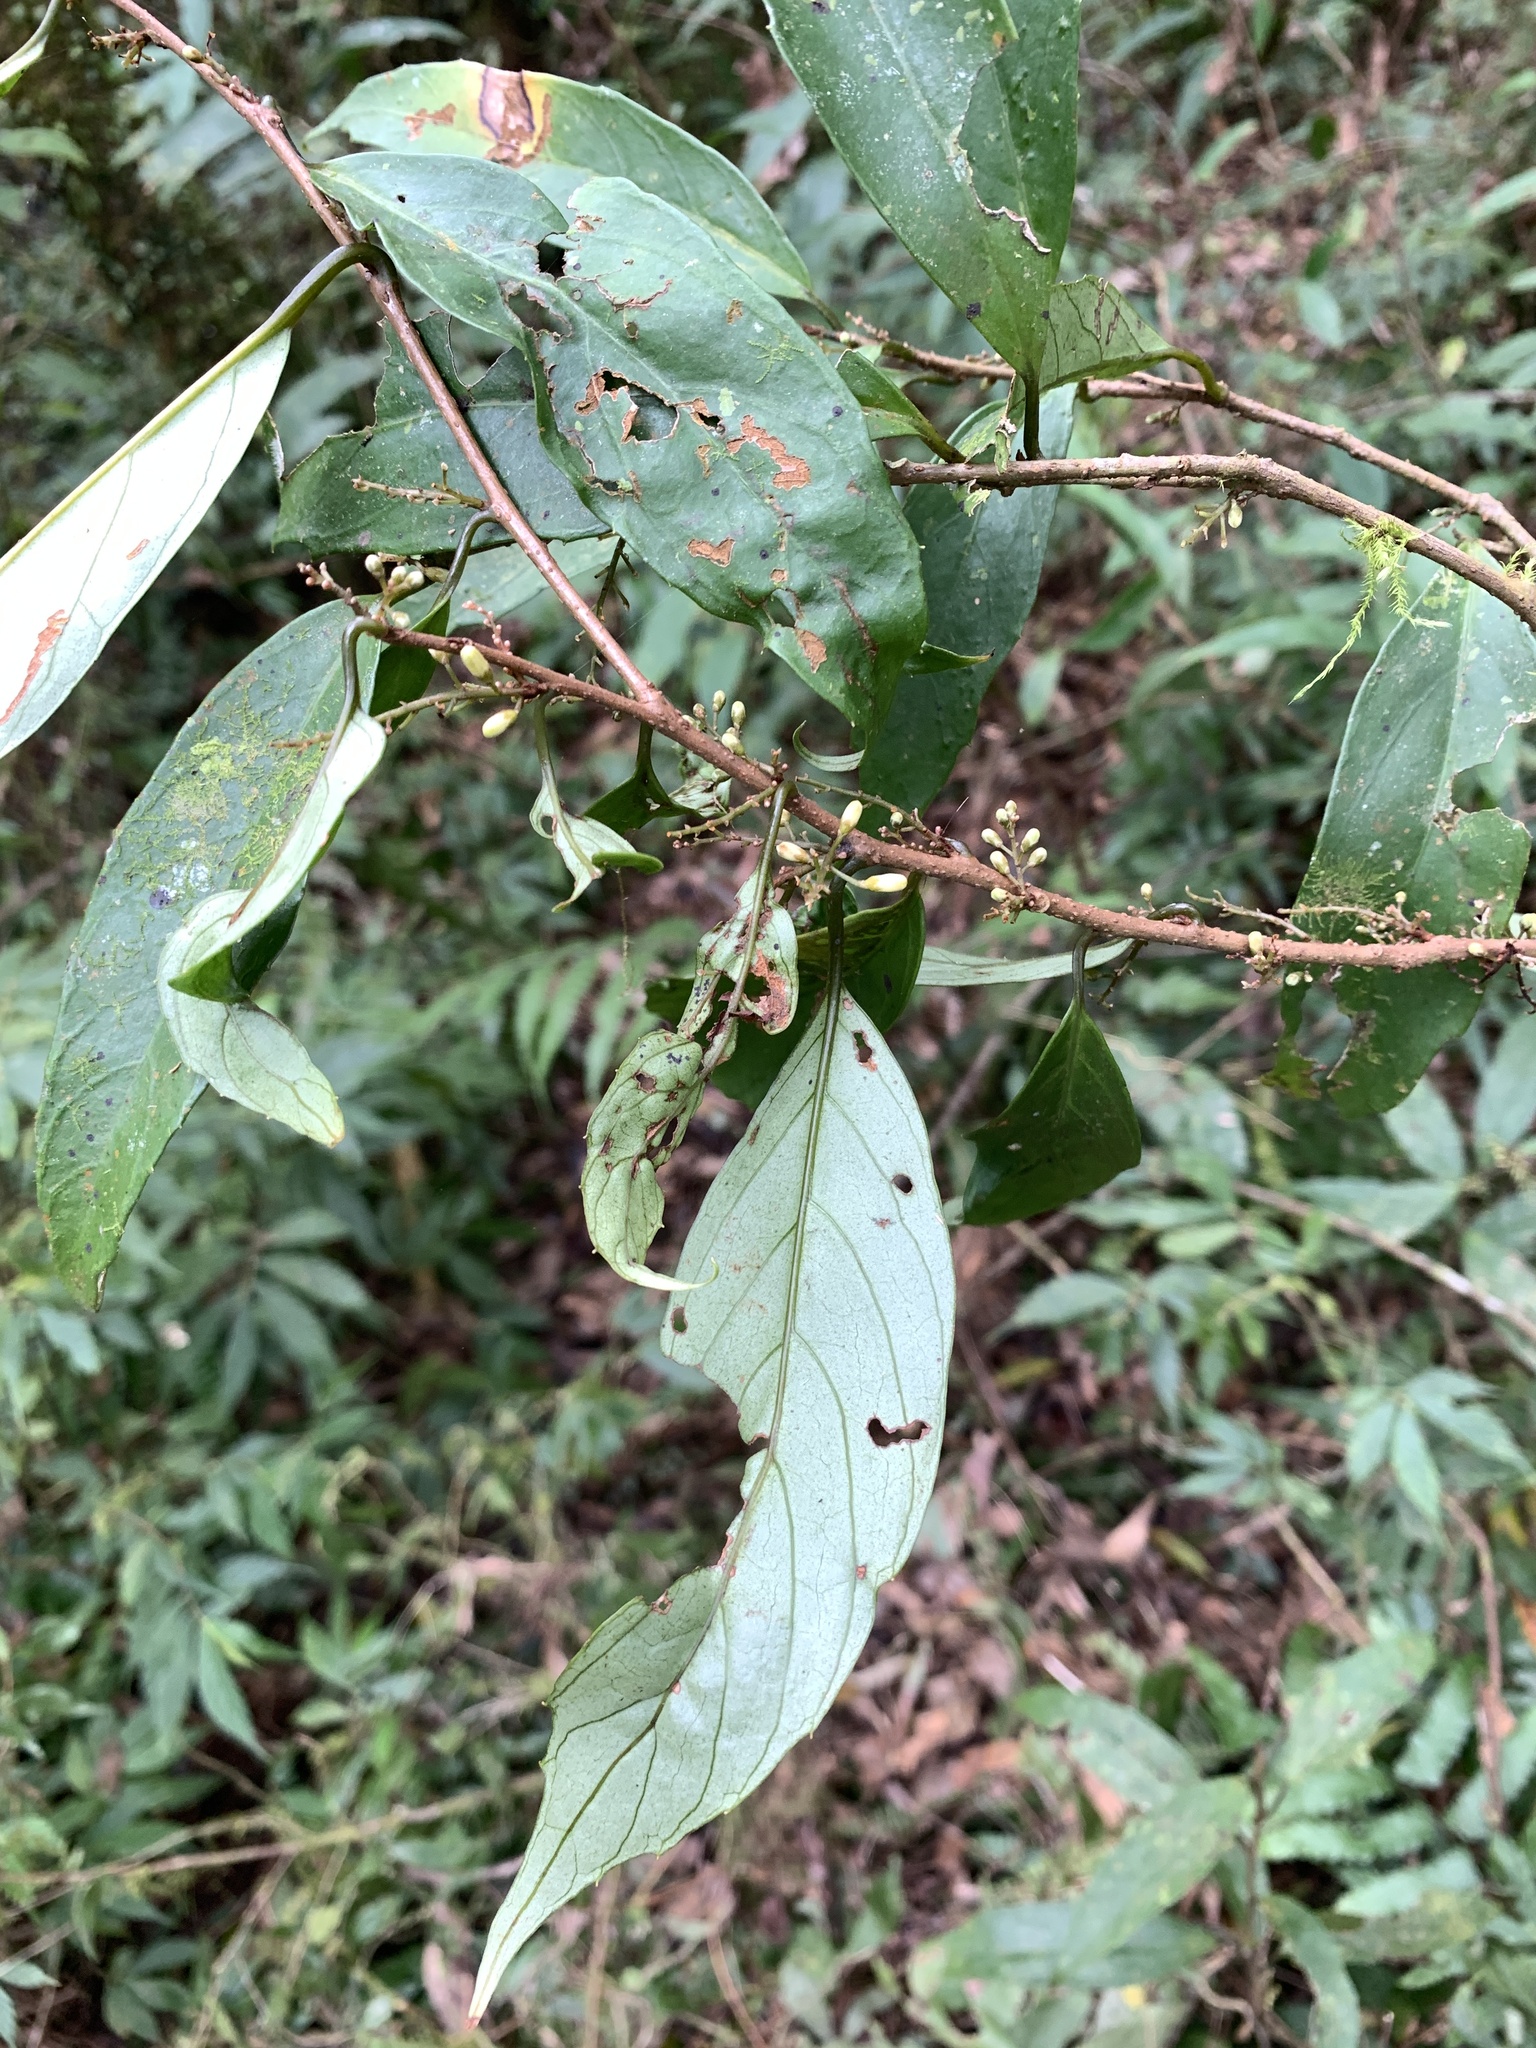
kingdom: Plantae
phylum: Tracheophyta
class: Magnoliopsida
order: Ericales
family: Primulaceae
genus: Maesa
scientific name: Maesa japonica
